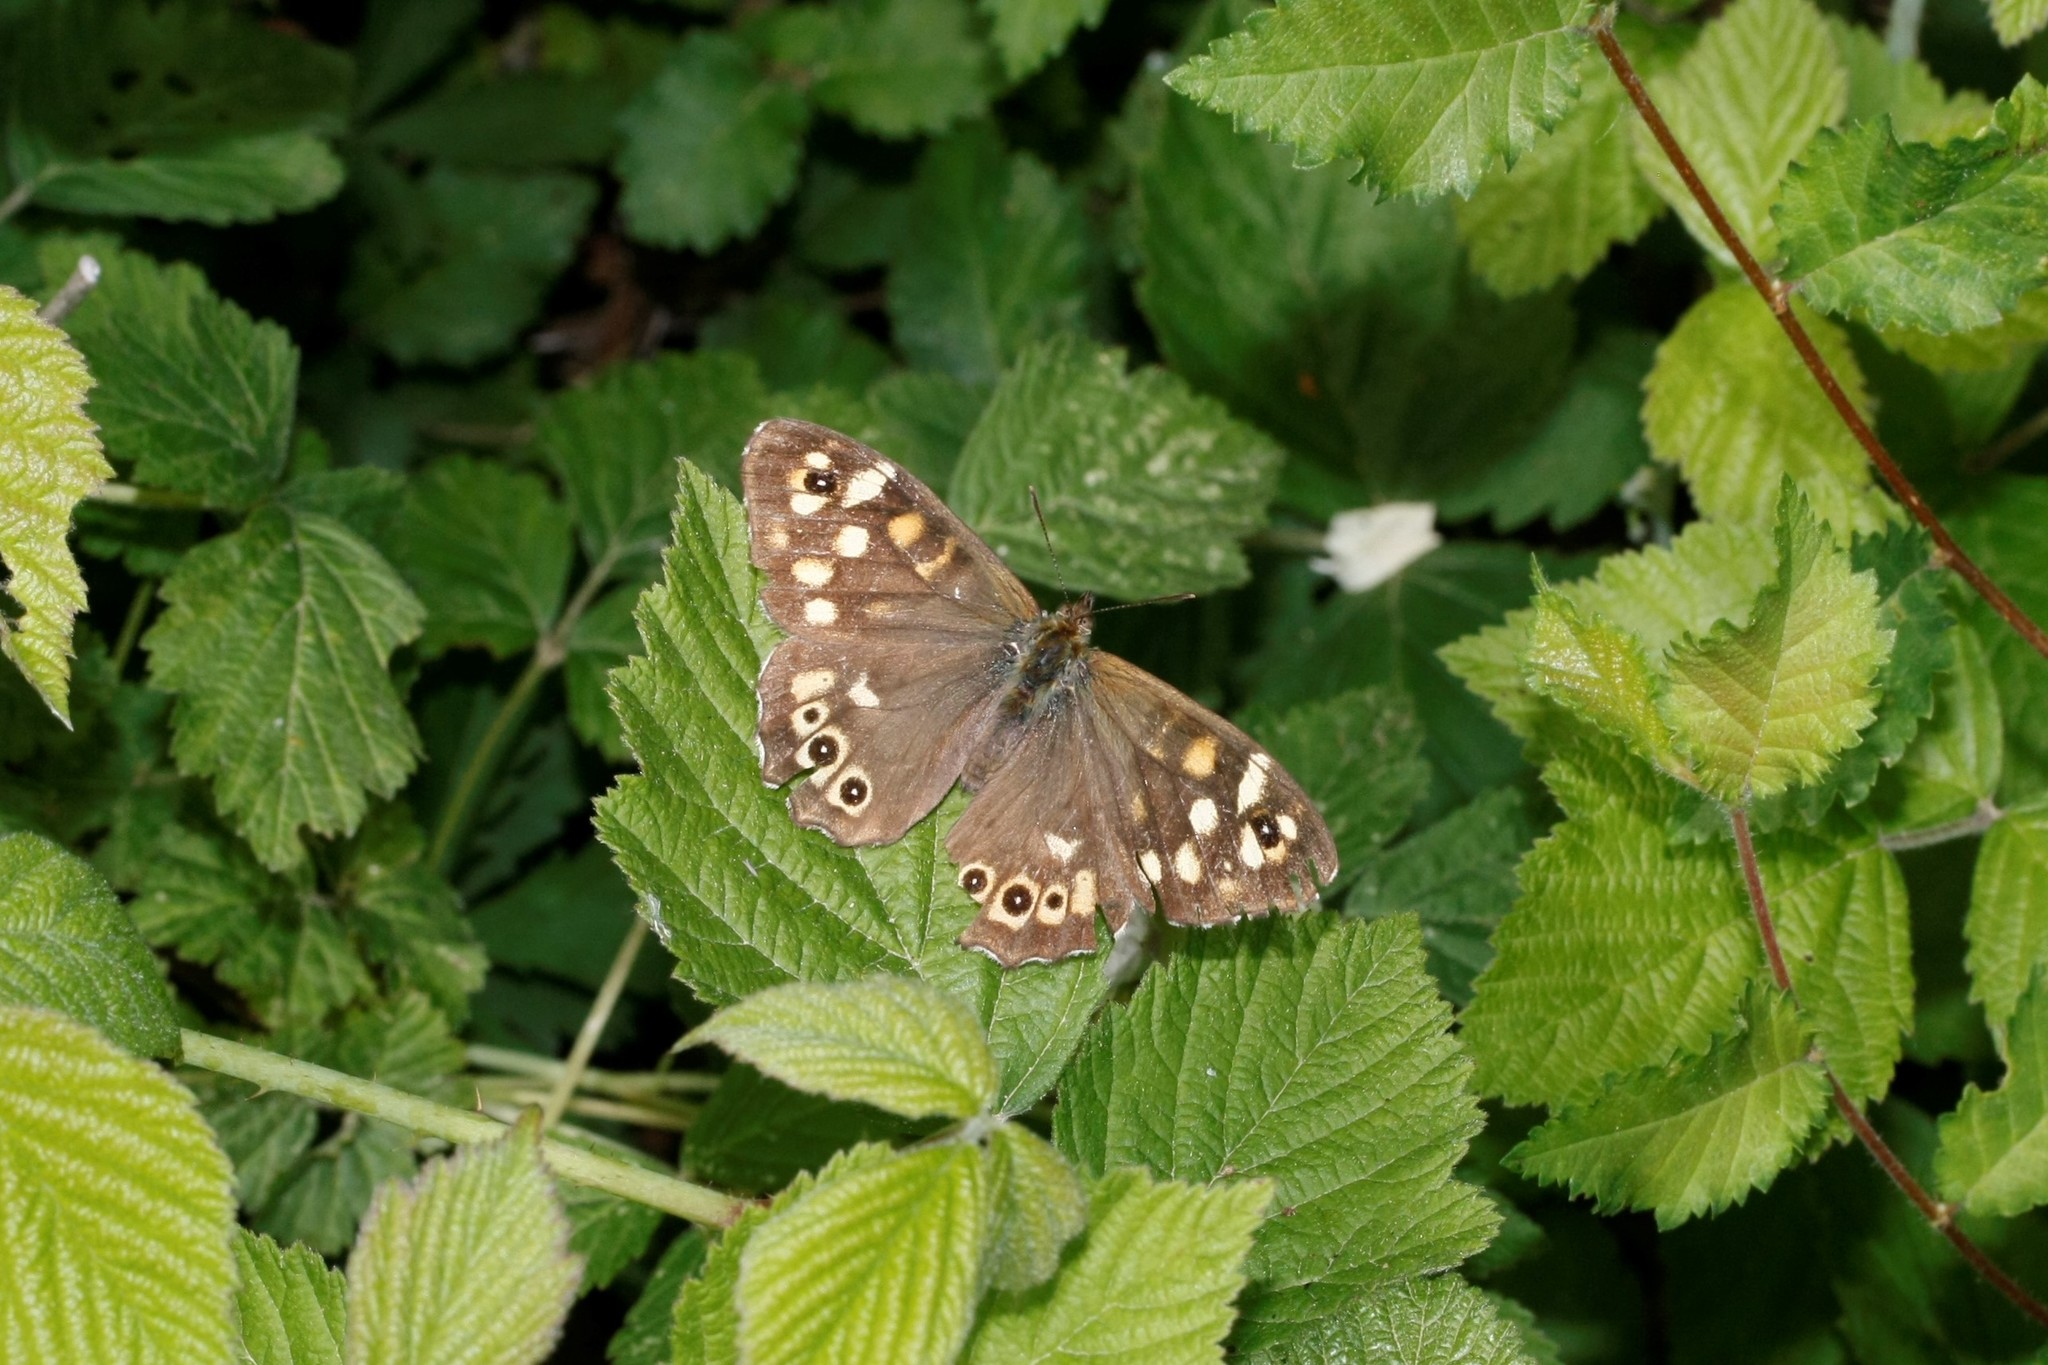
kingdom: Animalia
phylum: Arthropoda
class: Insecta
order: Lepidoptera
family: Nymphalidae
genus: Pararge
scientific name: Pararge aegeria
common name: Speckled wood
